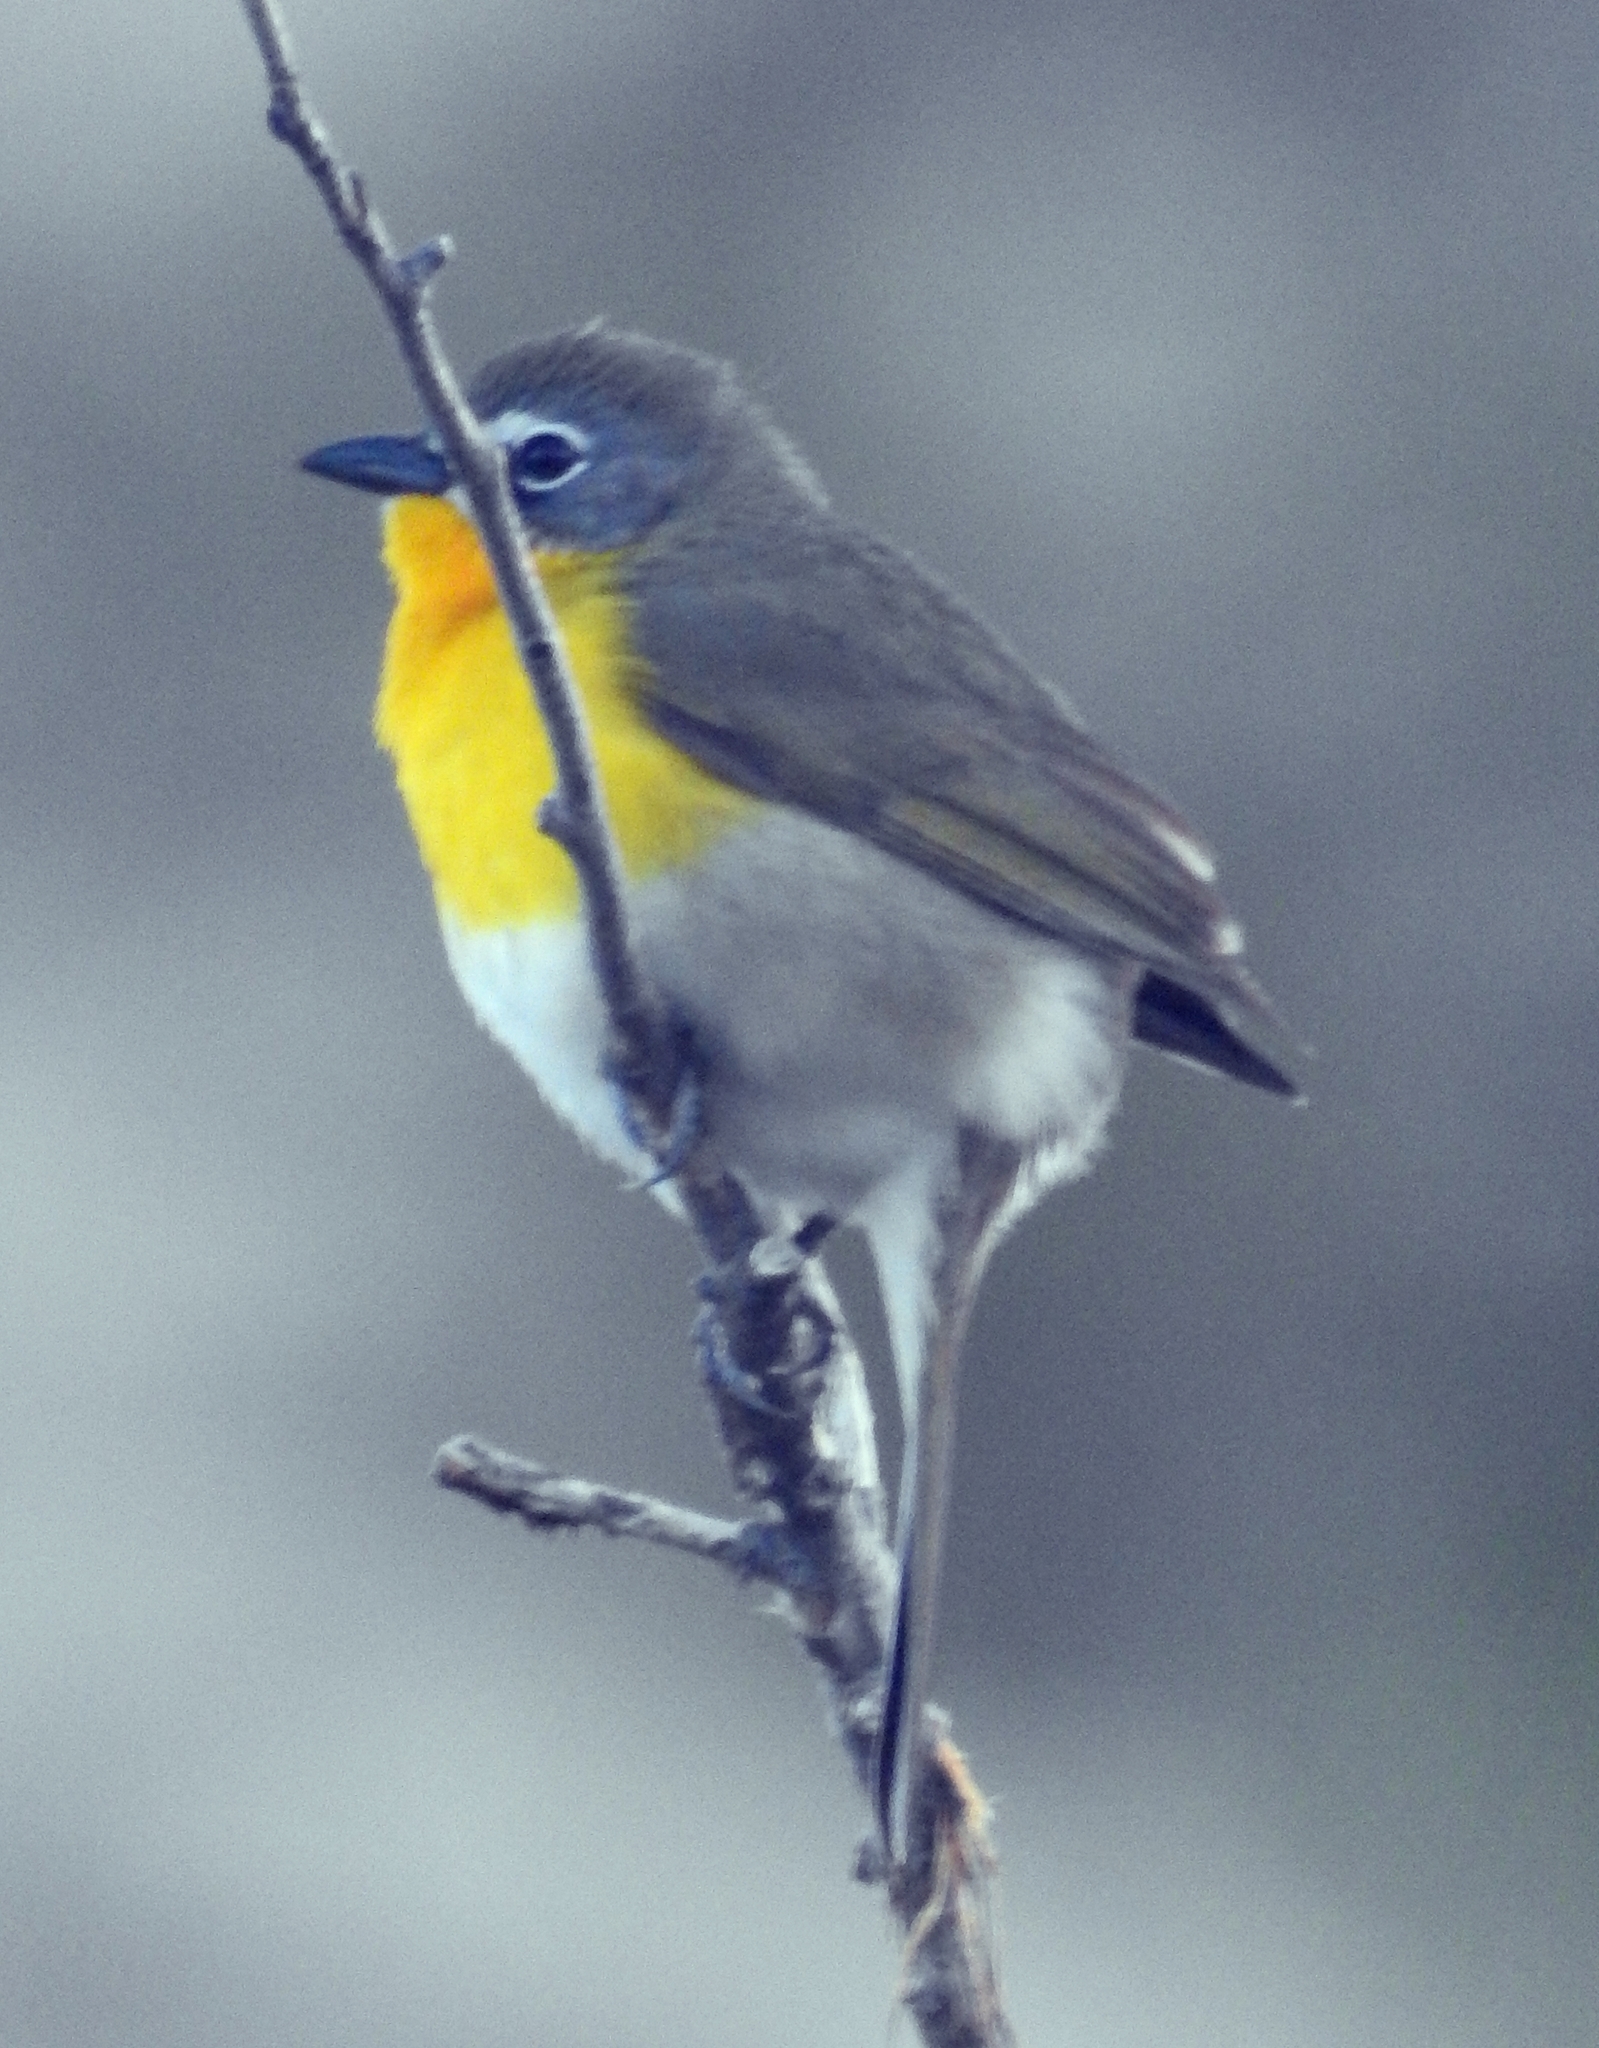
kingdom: Animalia
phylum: Chordata
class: Aves
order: Passeriformes
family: Parulidae
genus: Icteria
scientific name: Icteria virens
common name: Yellow-breasted chat
